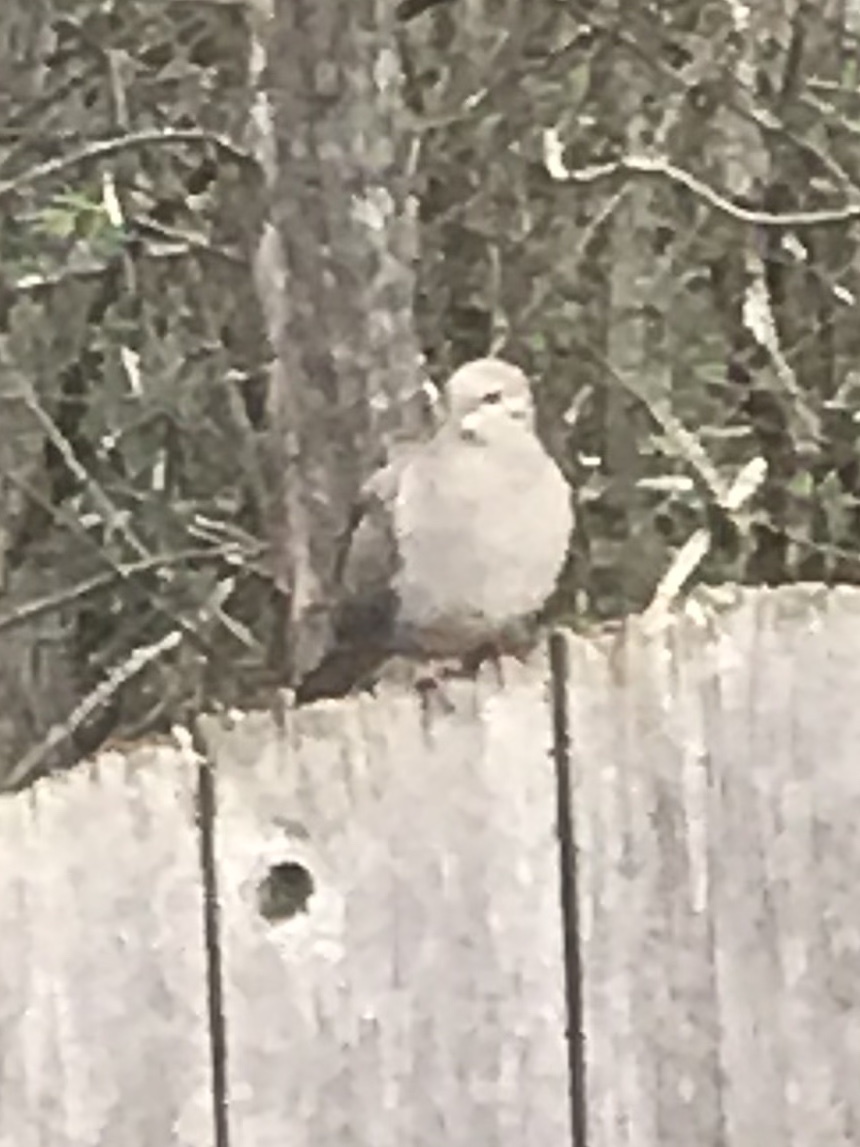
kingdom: Animalia
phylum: Chordata
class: Aves
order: Columbiformes
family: Columbidae
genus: Zenaida
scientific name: Zenaida macroura
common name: Mourning dove
